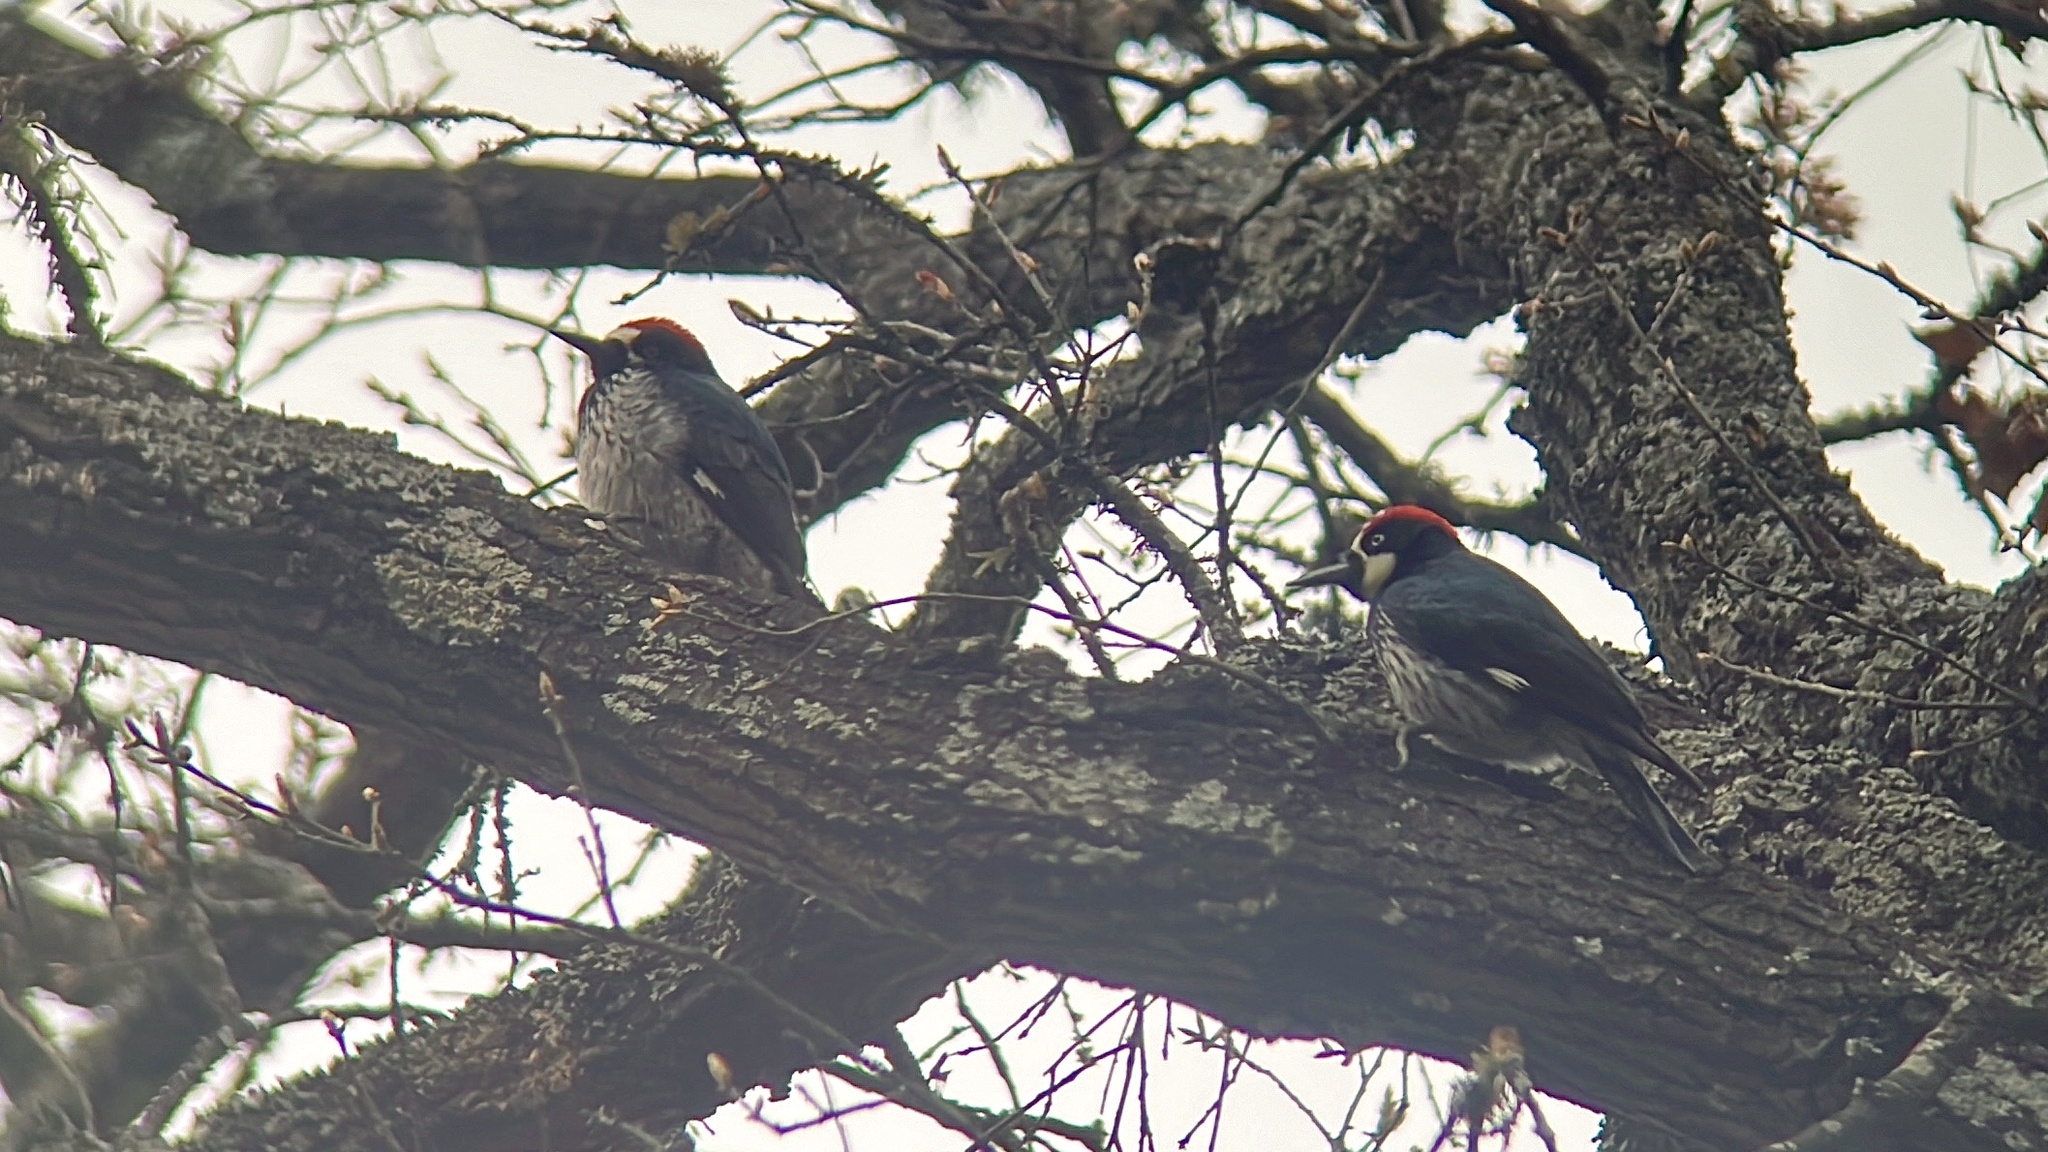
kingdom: Animalia
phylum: Chordata
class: Aves
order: Piciformes
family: Picidae
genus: Melanerpes
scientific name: Melanerpes formicivorus
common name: Acorn woodpecker
